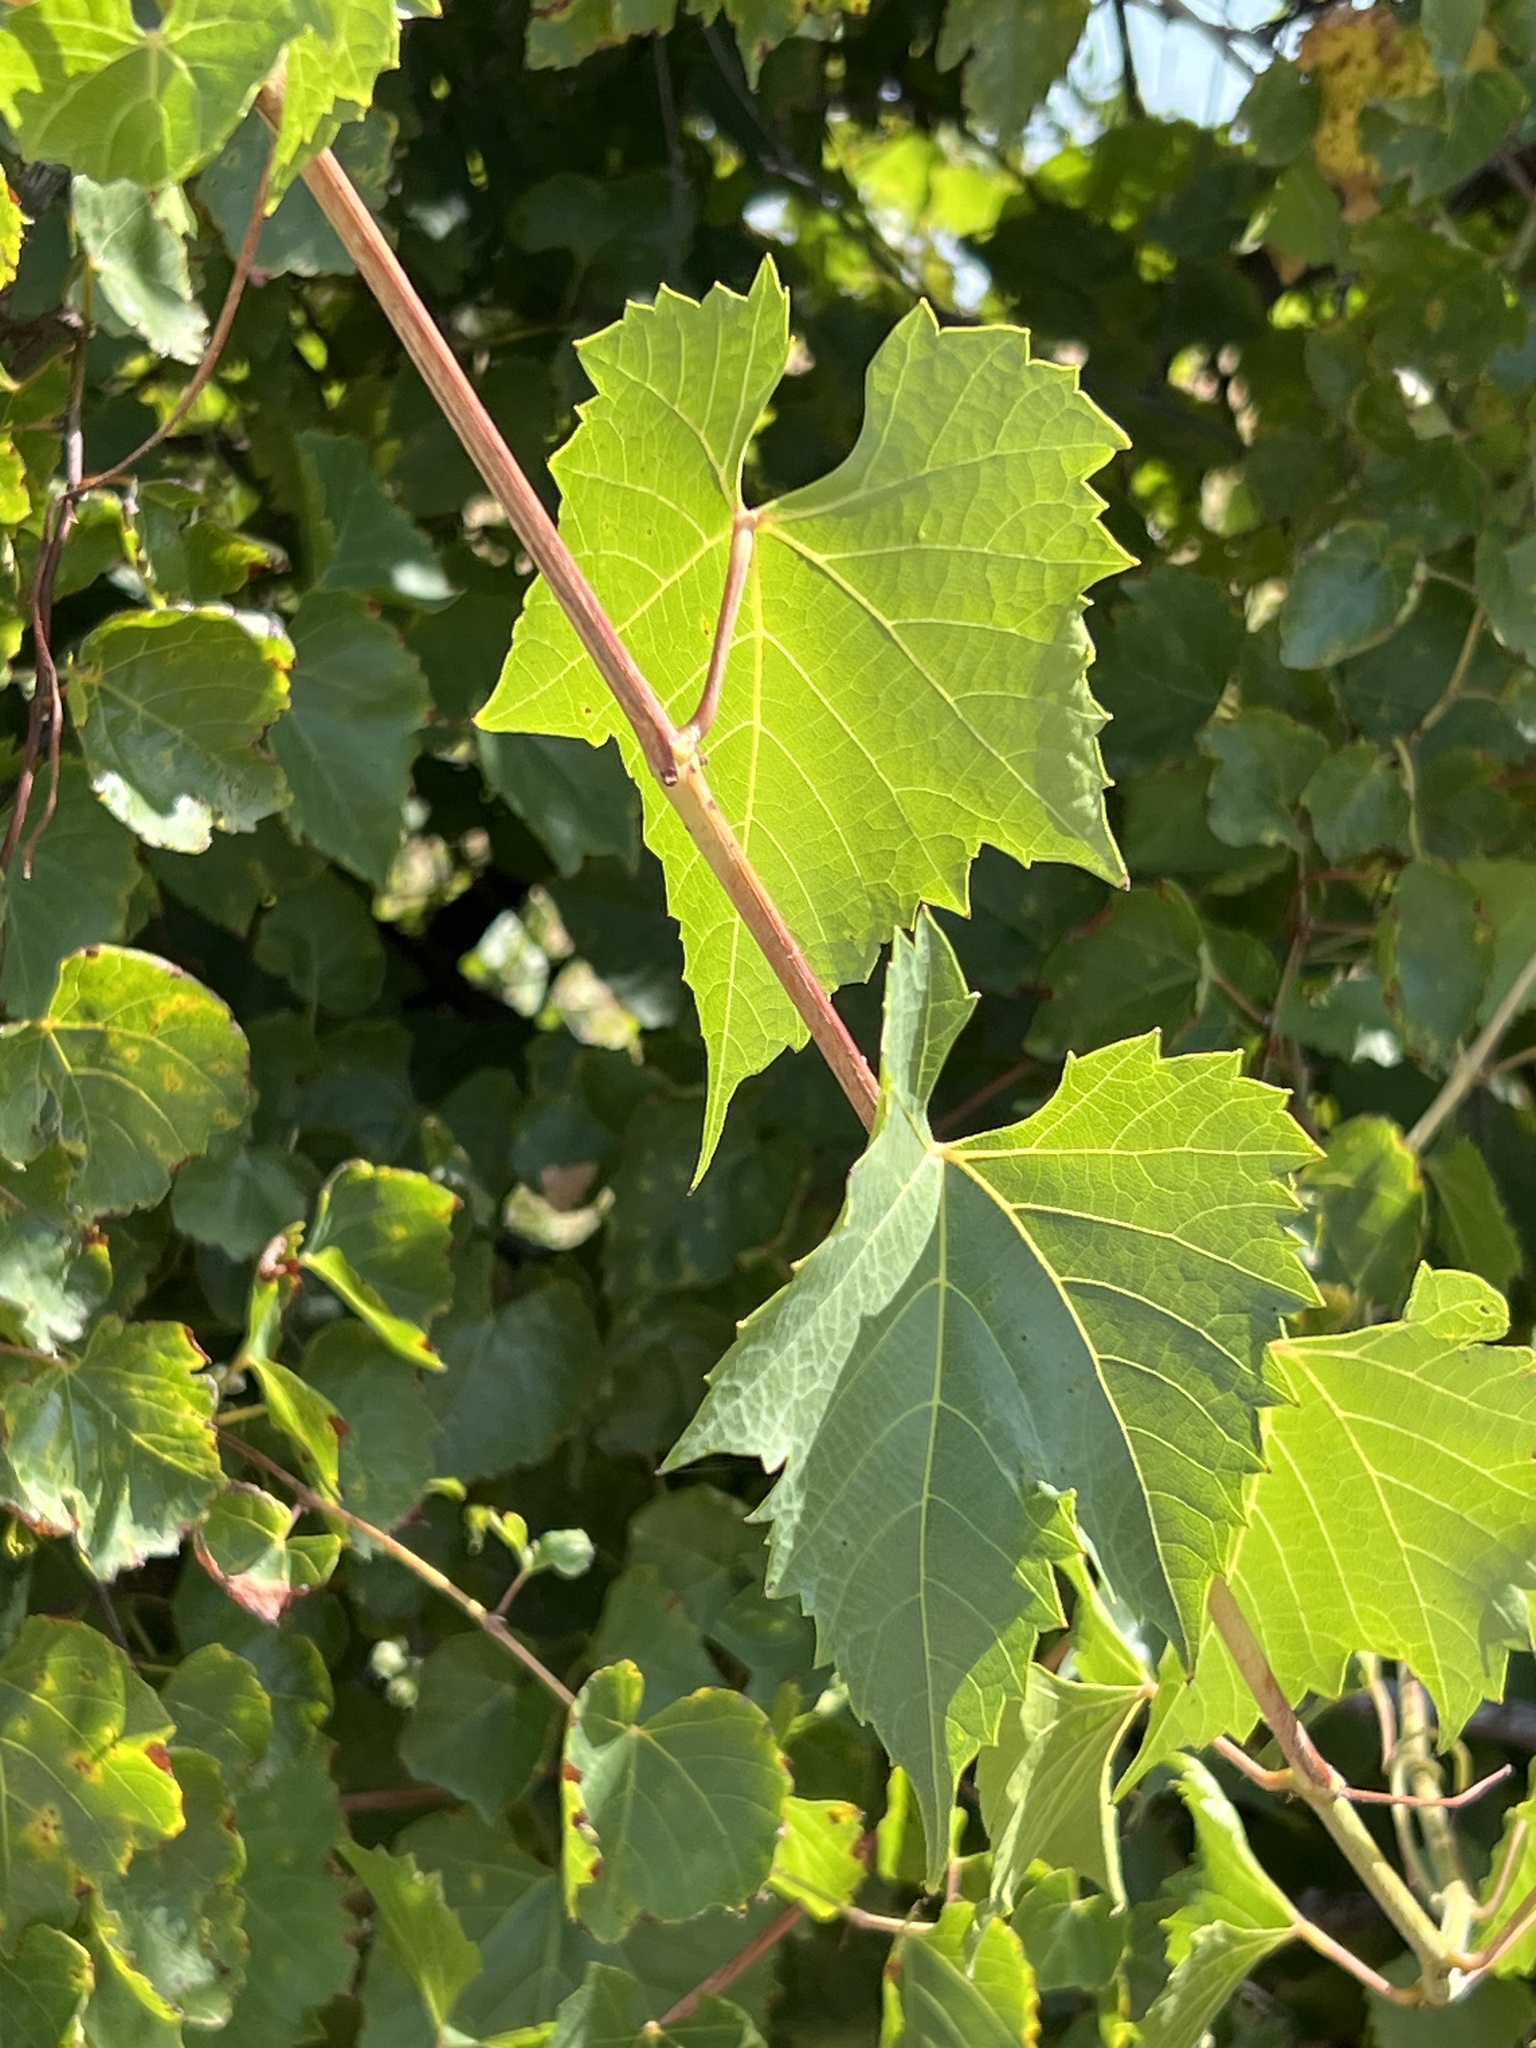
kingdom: Plantae
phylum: Tracheophyta
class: Magnoliopsida
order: Vitales
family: Vitaceae
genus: Vitis
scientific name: Vitis monticola
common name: Mountain grape
